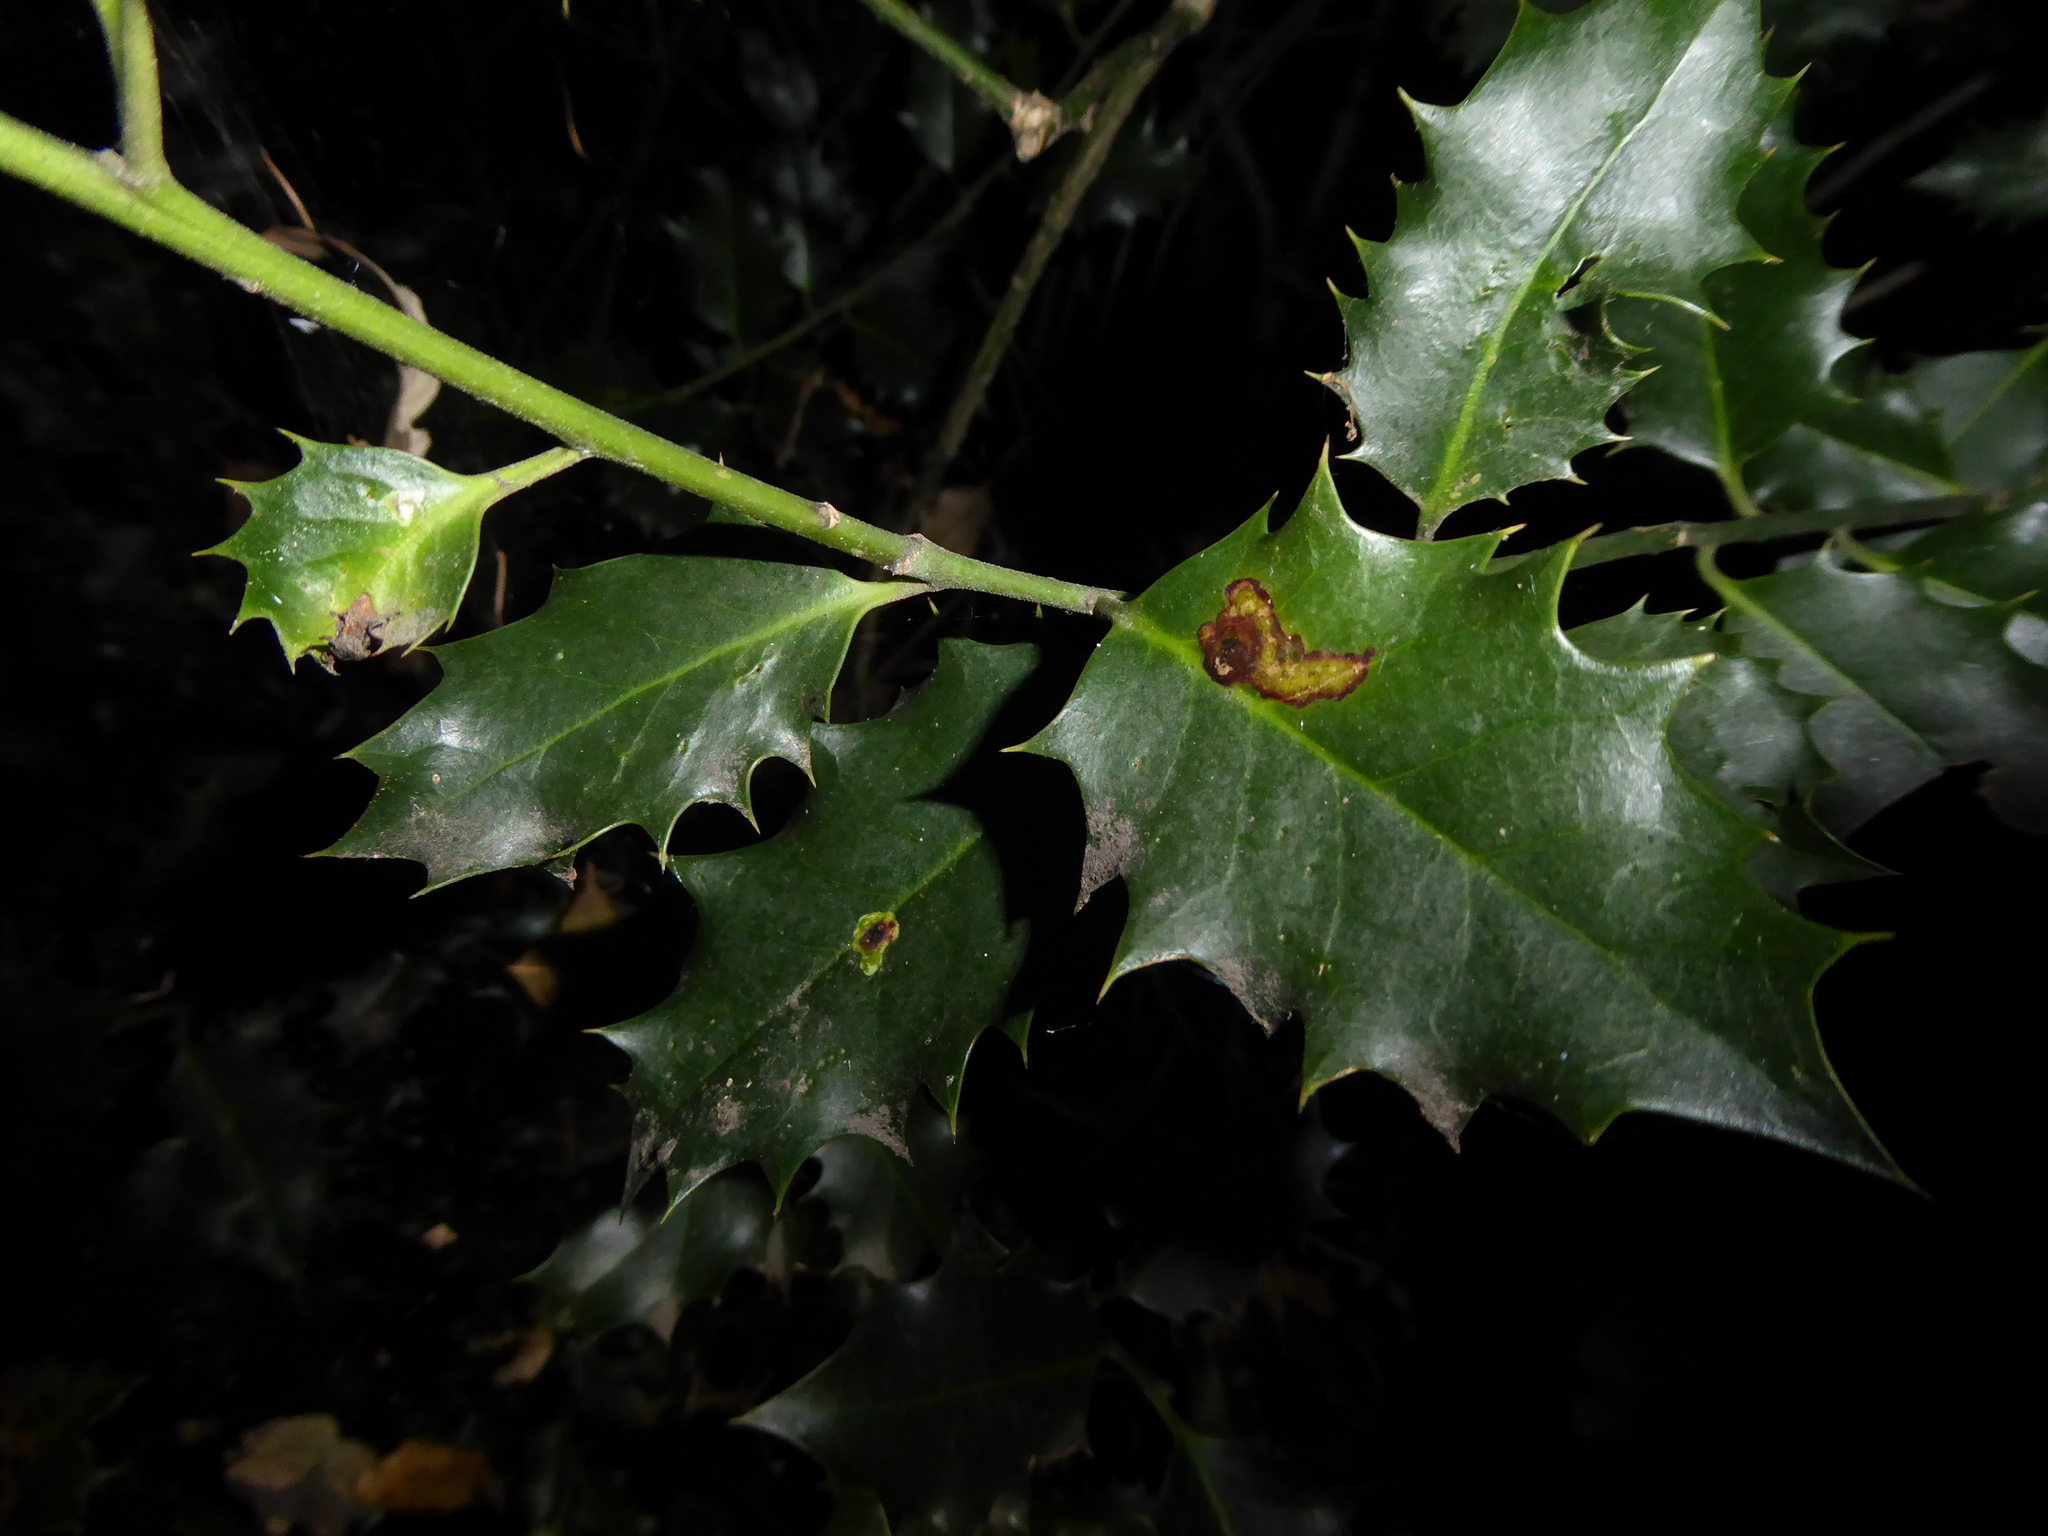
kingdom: Animalia
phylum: Arthropoda
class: Insecta
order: Diptera
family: Agromyzidae
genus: Phytomyza
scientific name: Phytomyza ilicis
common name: Holly leafminer
